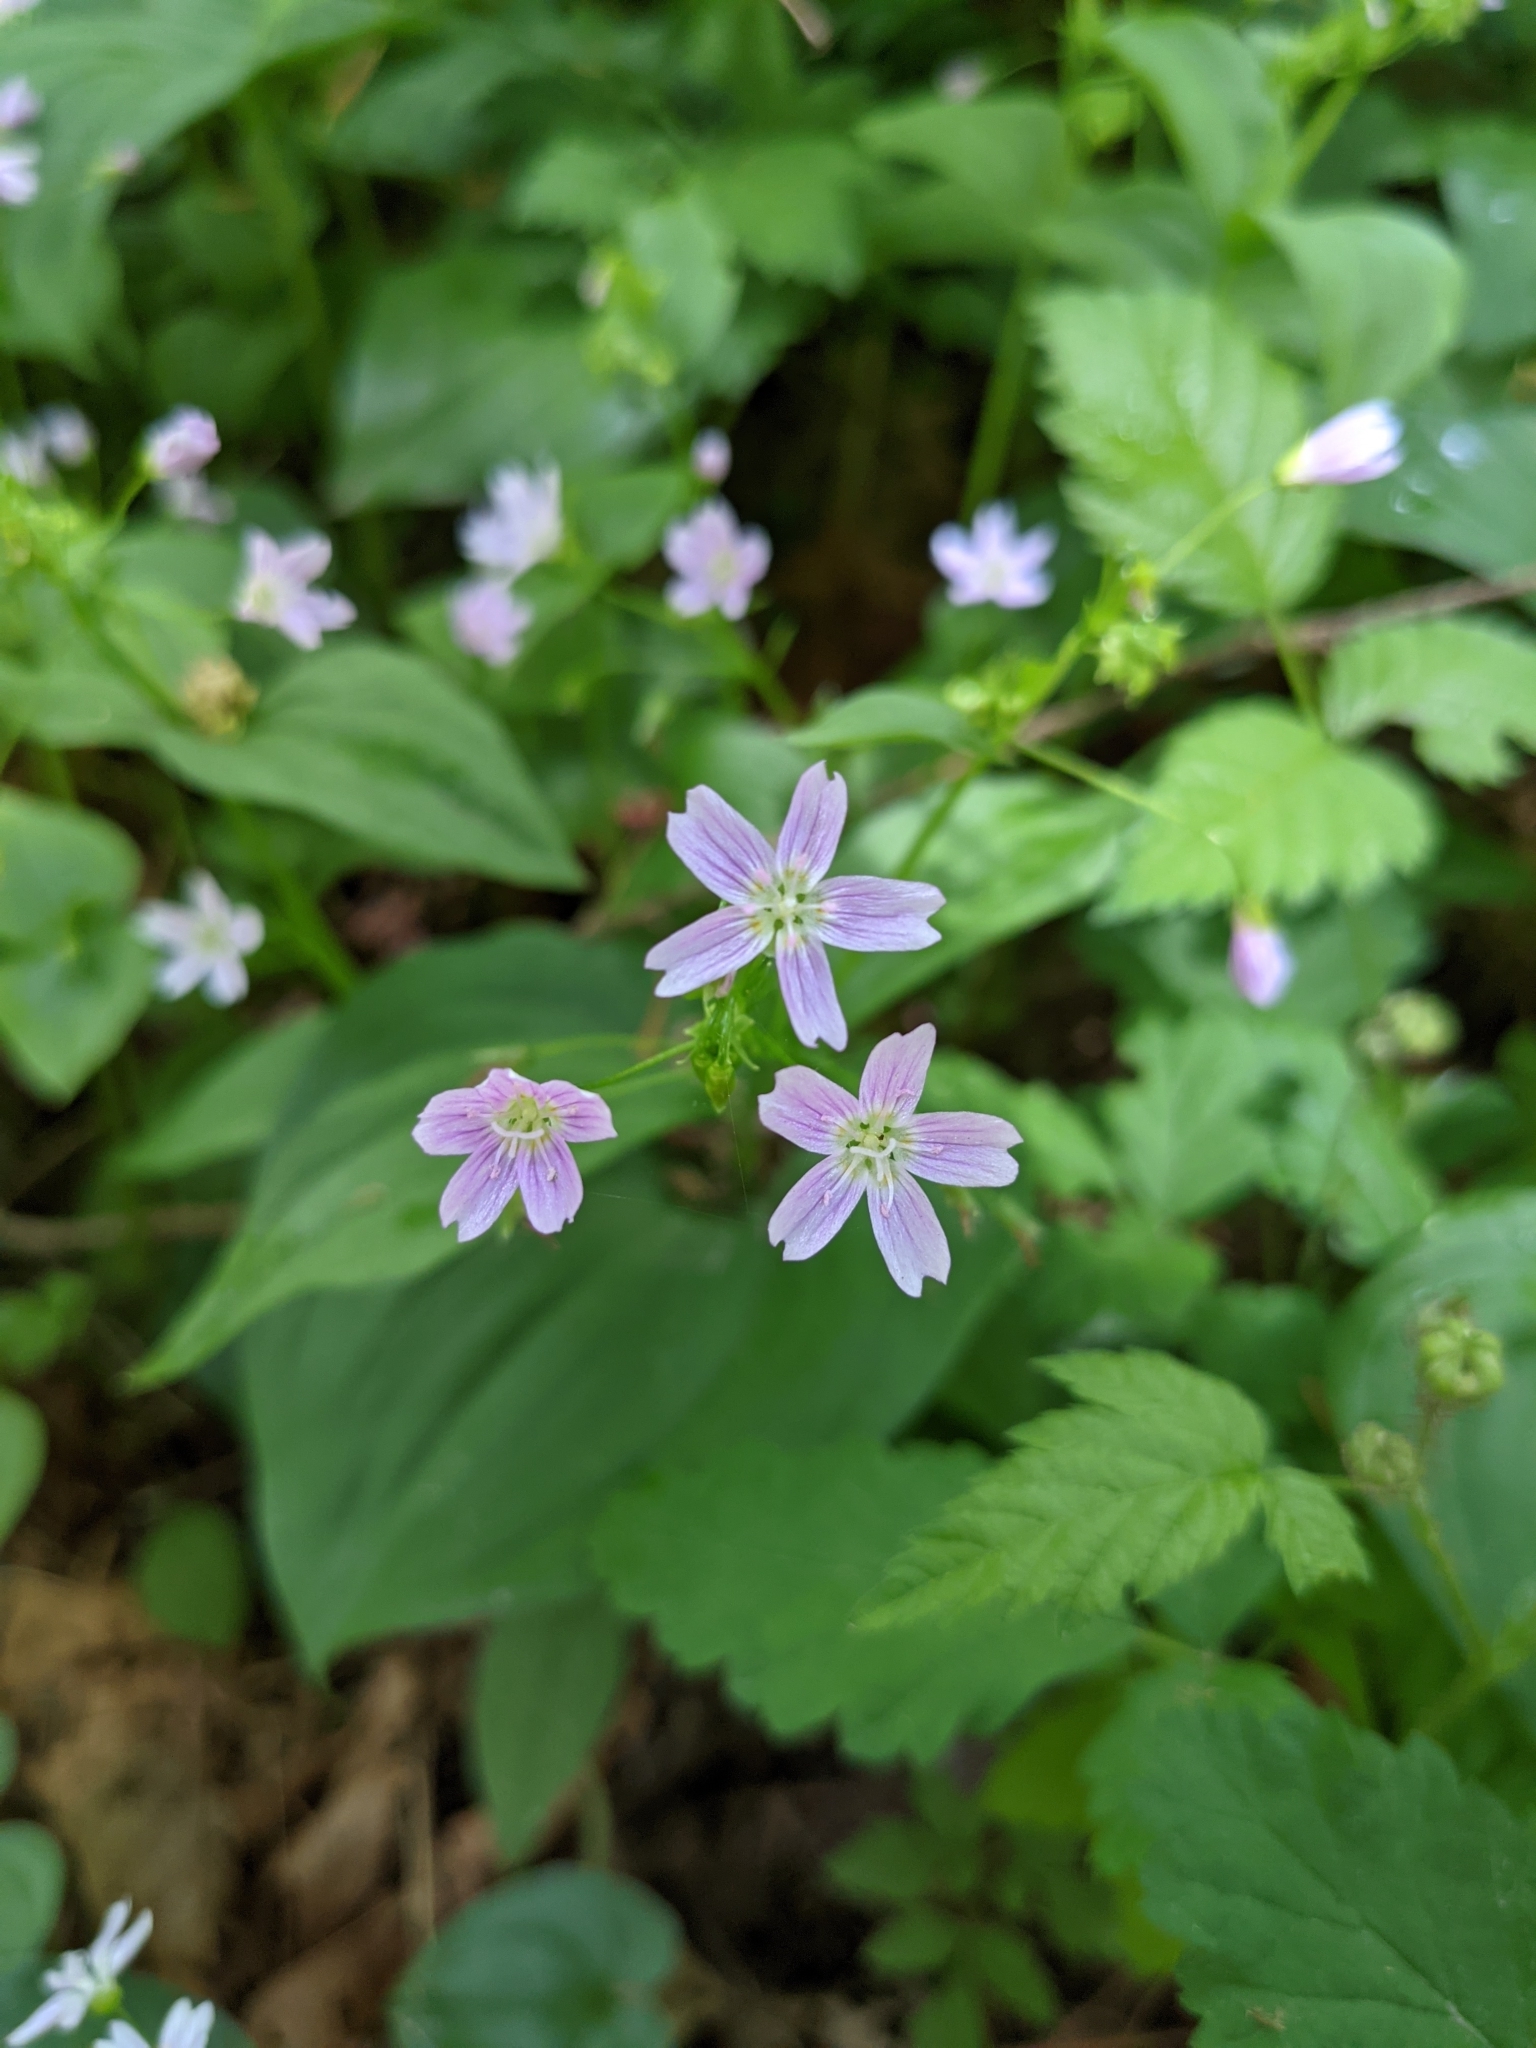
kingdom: Plantae
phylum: Tracheophyta
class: Magnoliopsida
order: Caryophyllales
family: Montiaceae
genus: Claytonia
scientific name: Claytonia sibirica
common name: Pink purslane
